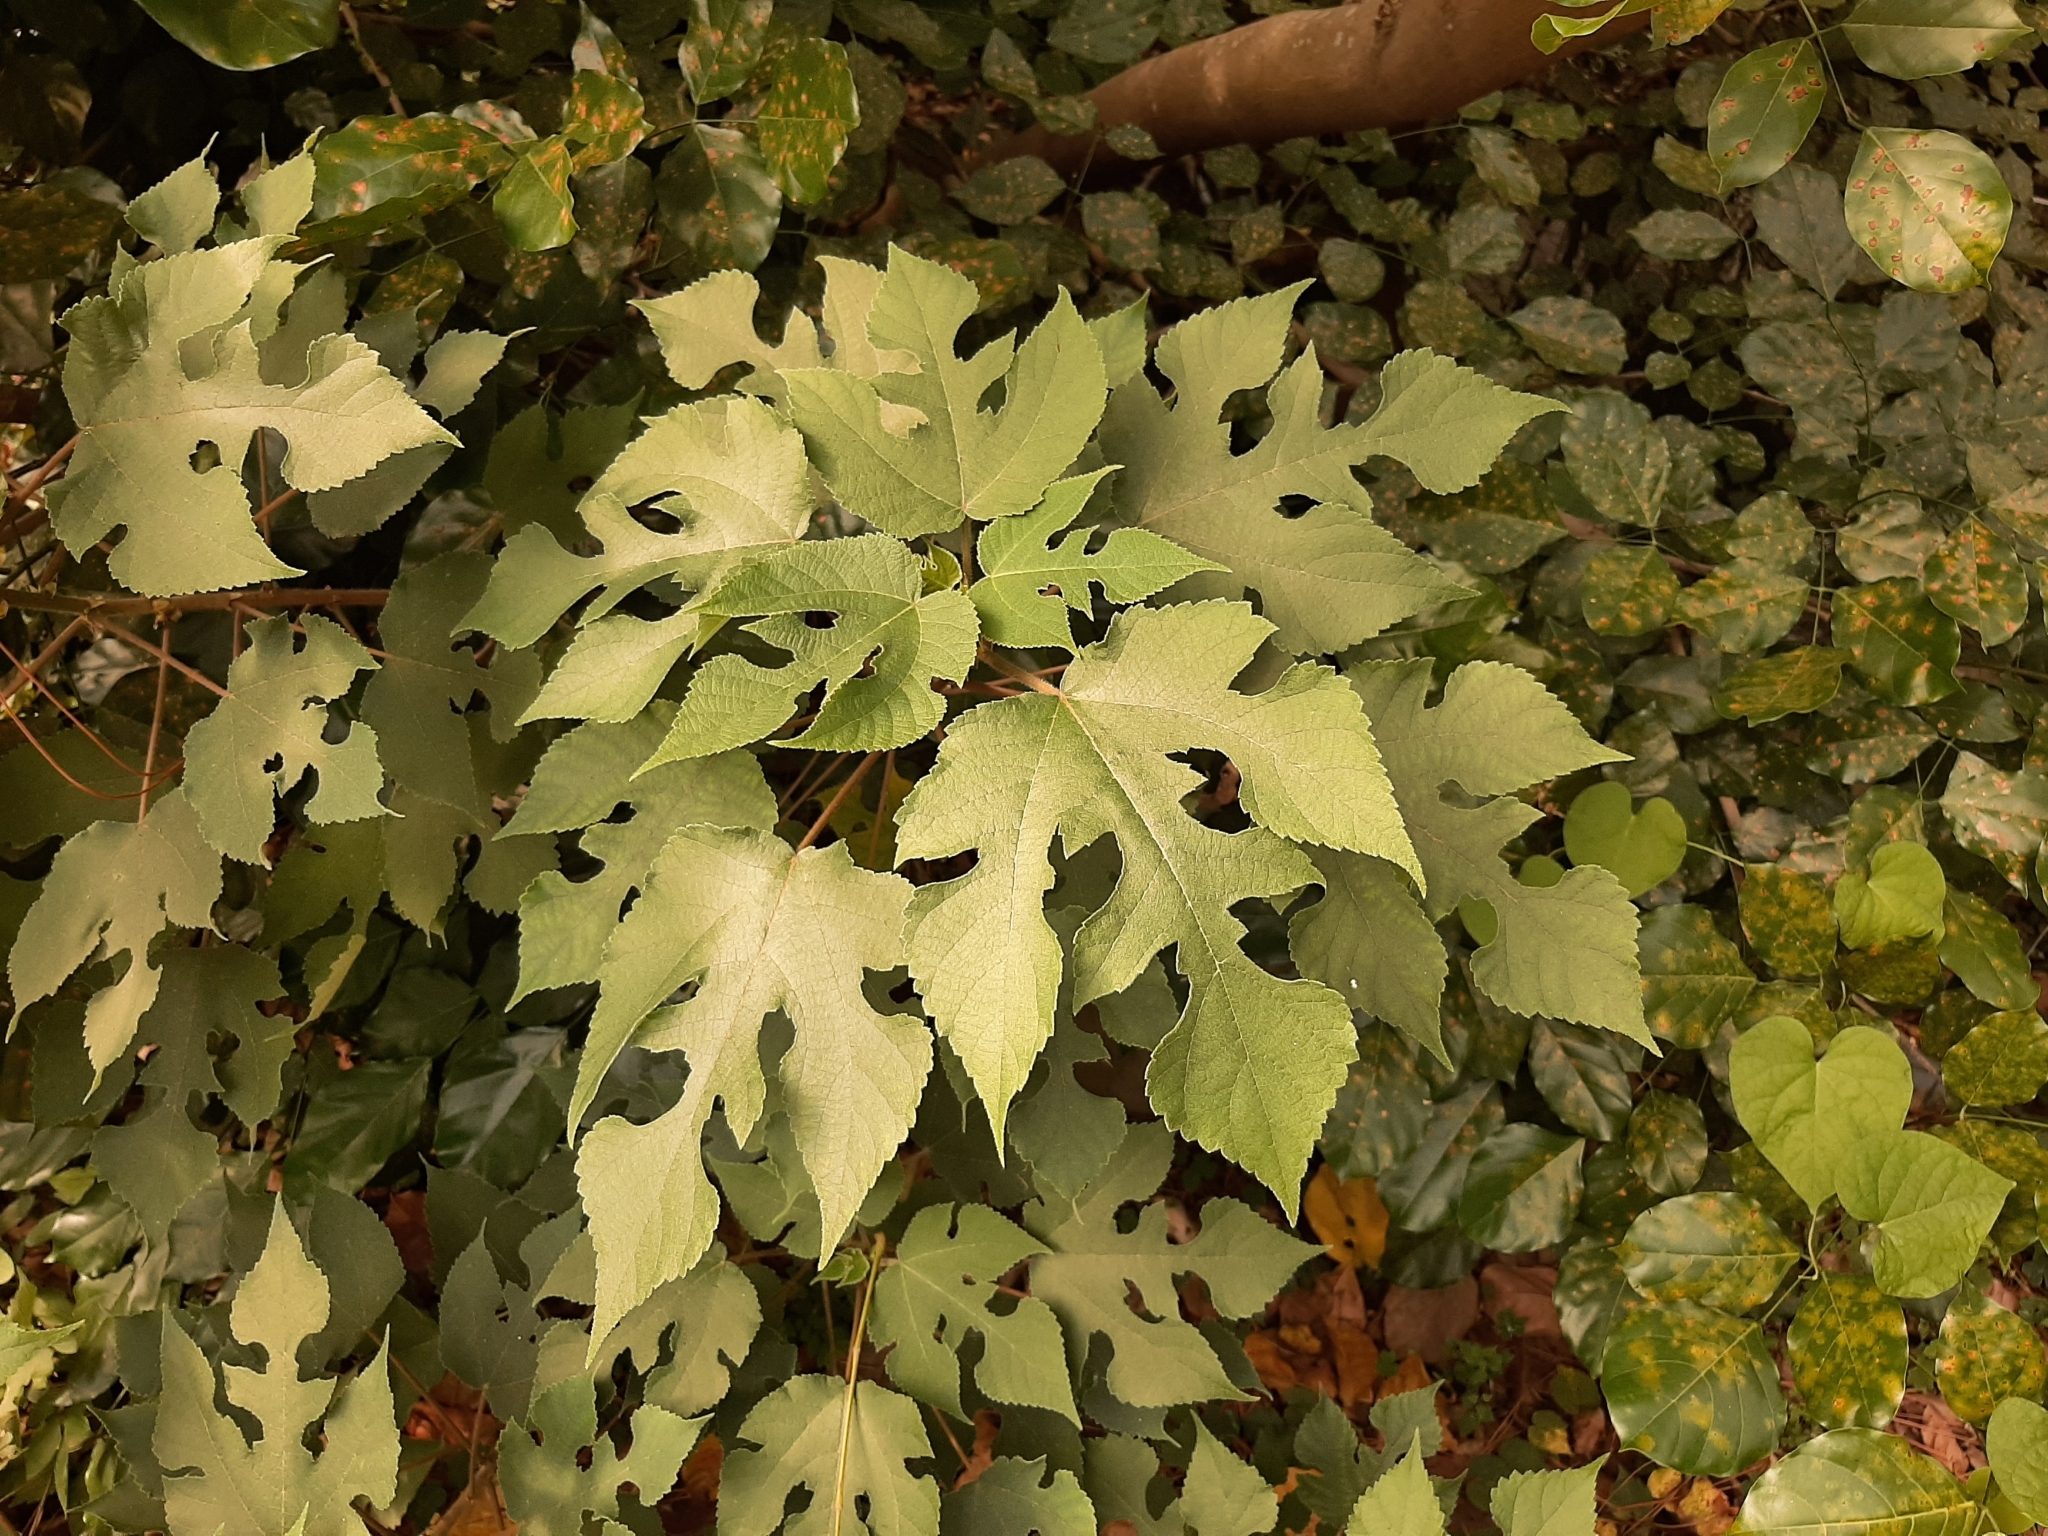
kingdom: Plantae
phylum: Tracheophyta
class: Magnoliopsida
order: Rosales
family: Moraceae
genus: Broussonetia
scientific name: Broussonetia papyrifera
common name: Paper mulberry
